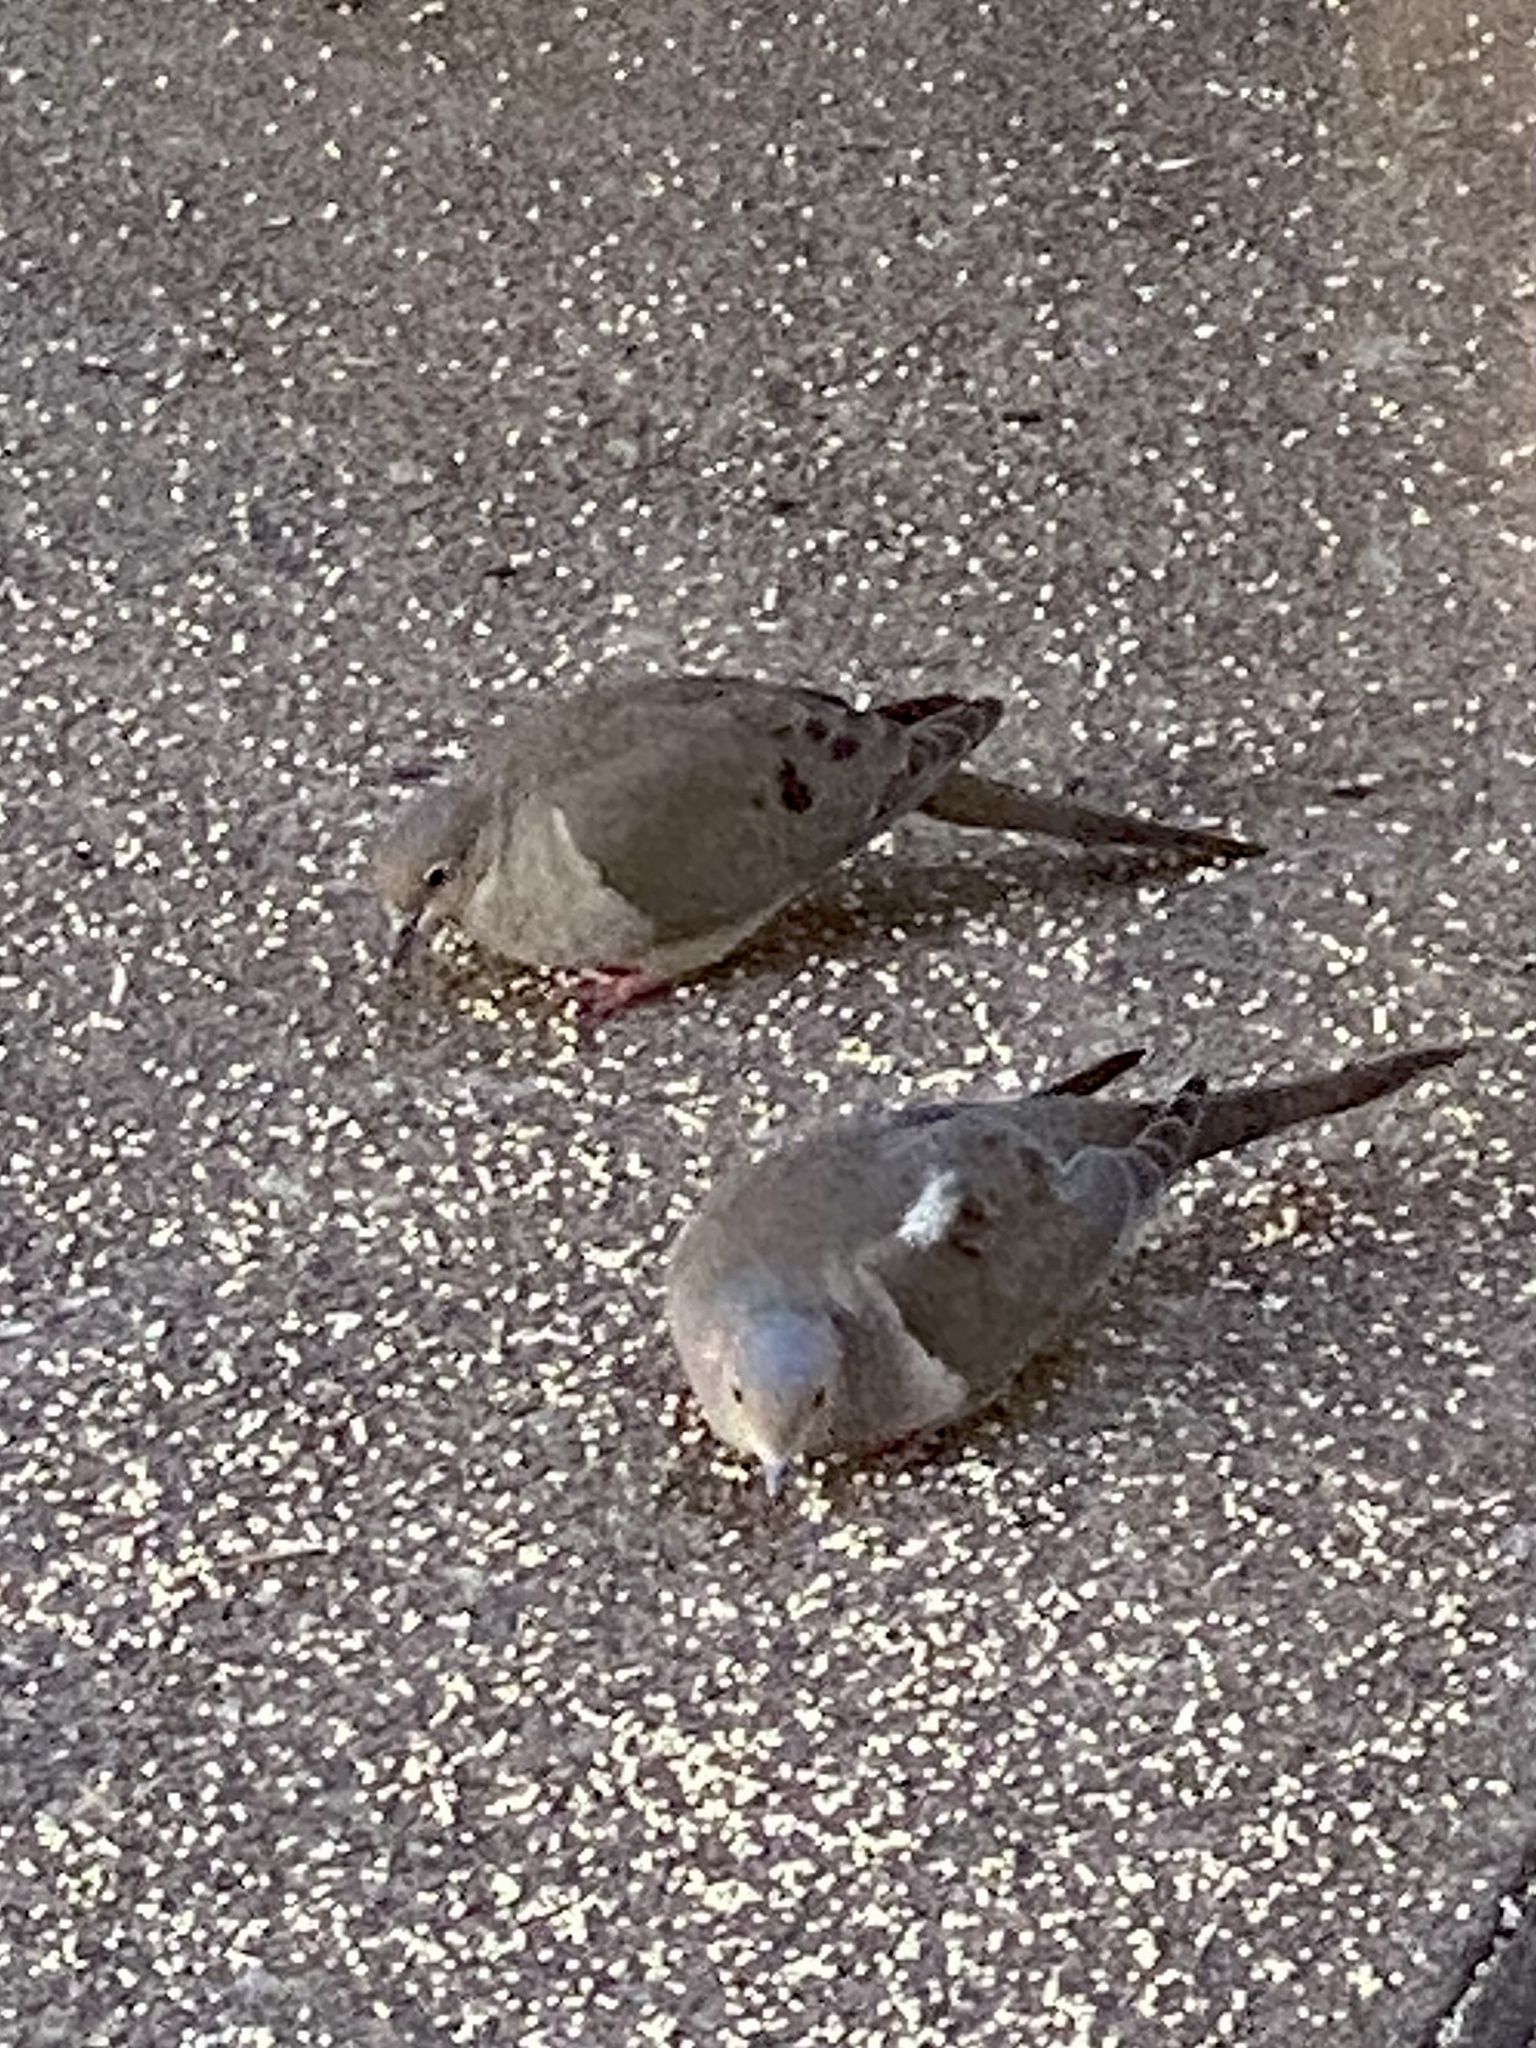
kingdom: Animalia
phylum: Chordata
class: Aves
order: Columbiformes
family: Columbidae
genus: Zenaida
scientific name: Zenaida macroura
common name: Mourning dove
